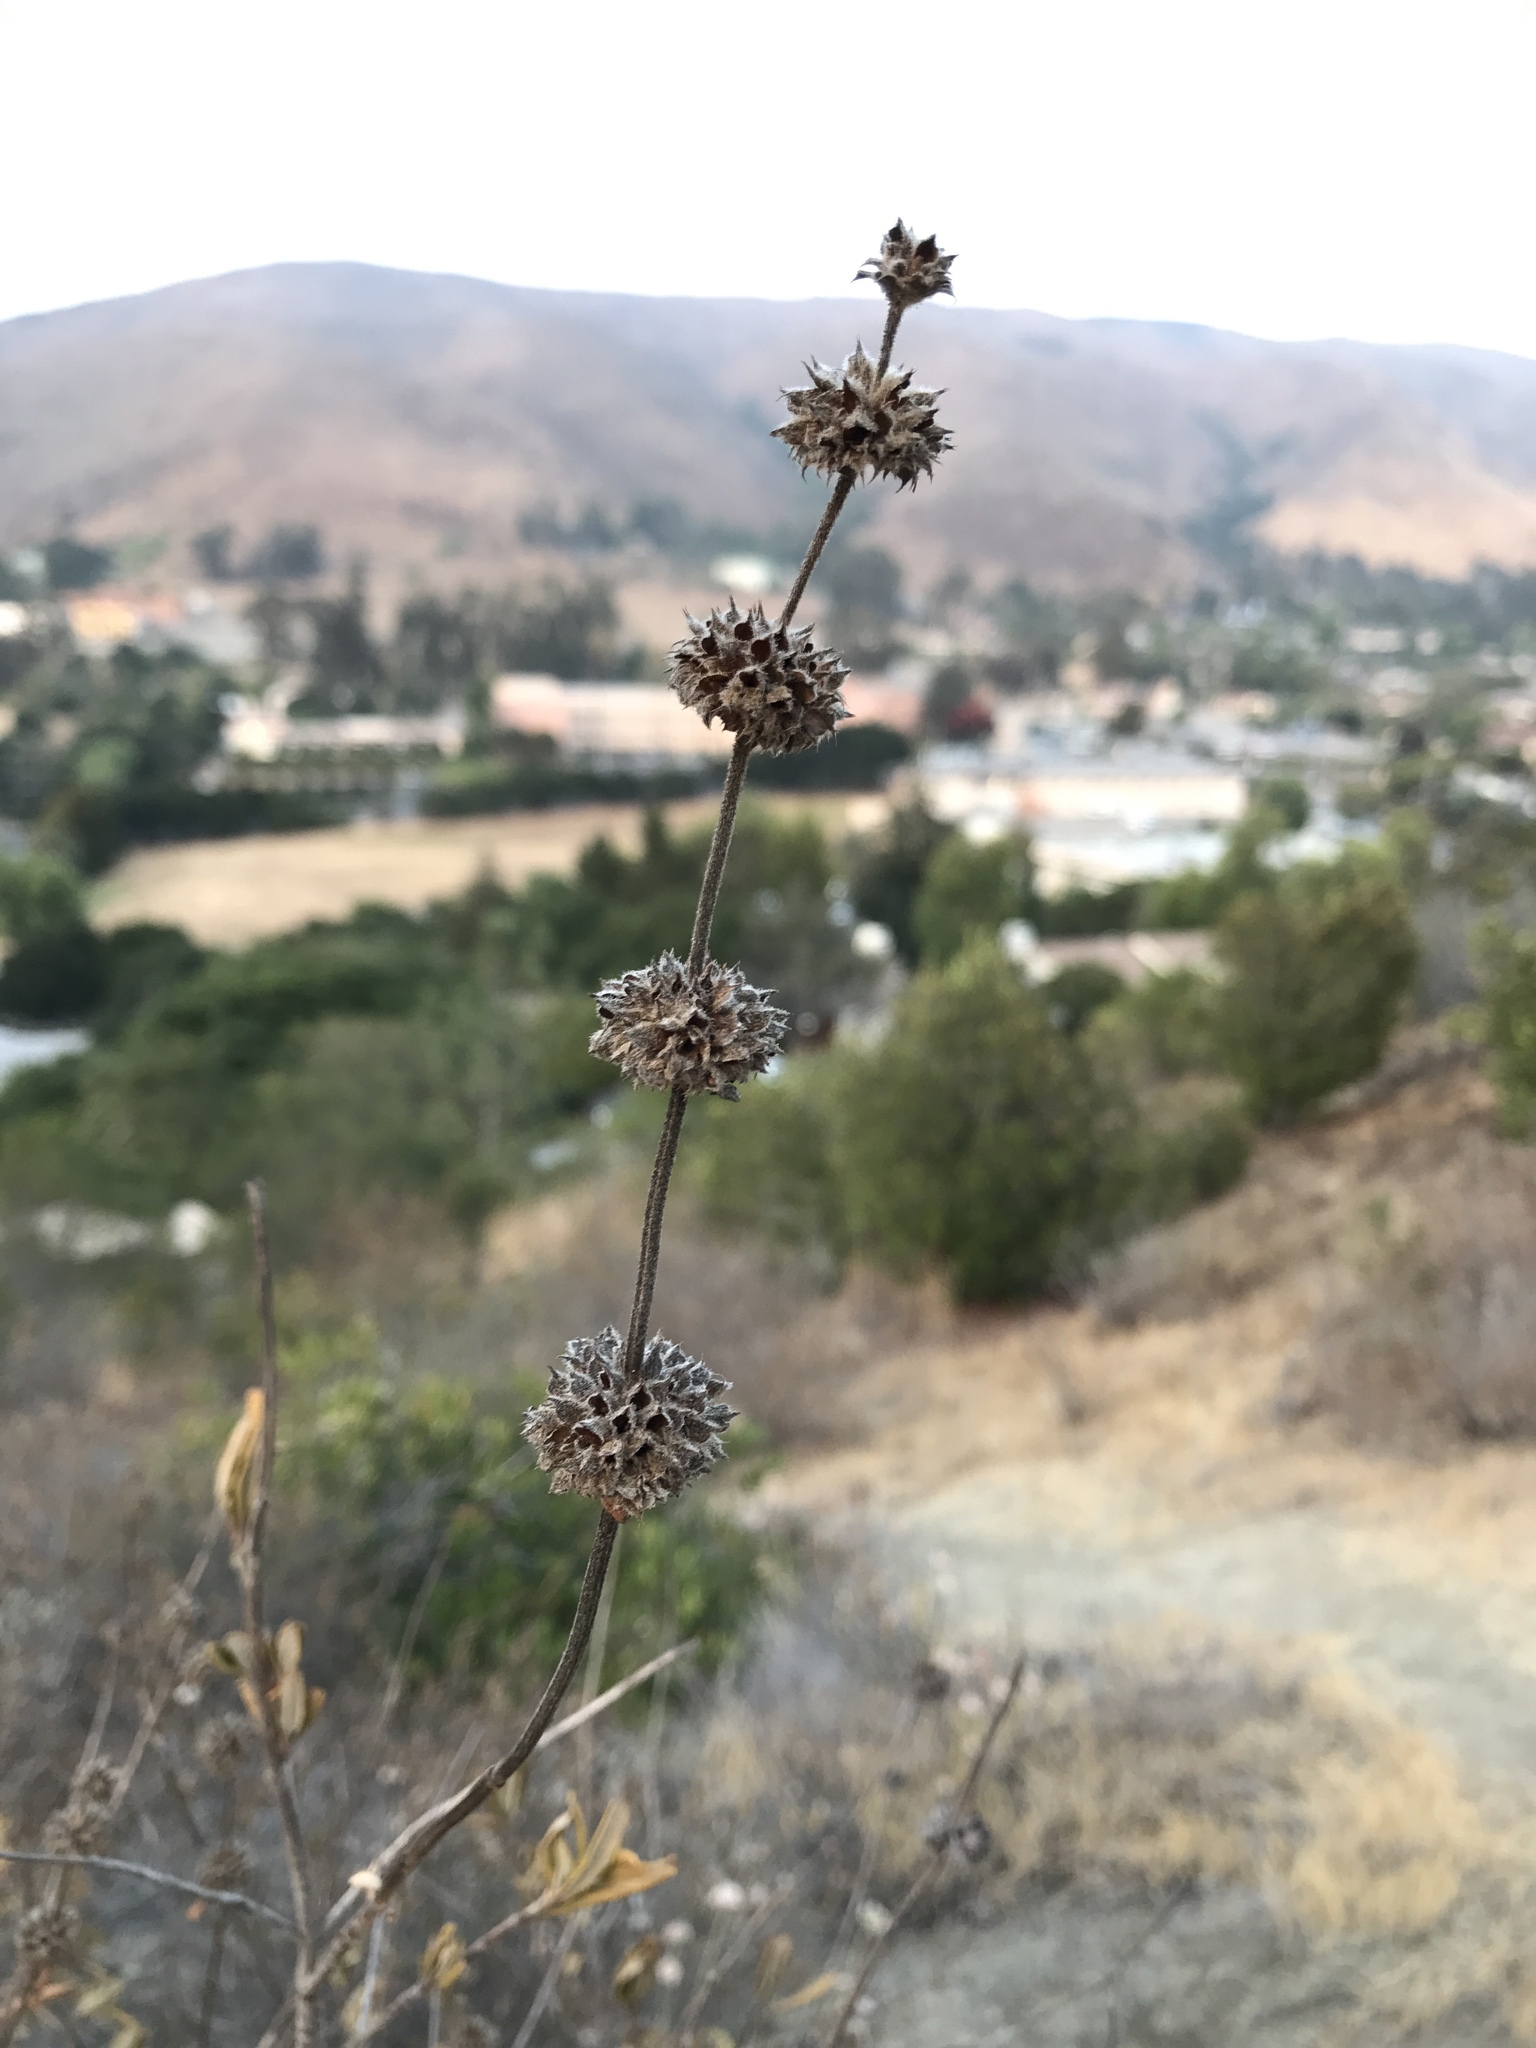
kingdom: Plantae
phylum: Tracheophyta
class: Magnoliopsida
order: Lamiales
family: Lamiaceae
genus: Salvia
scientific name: Salvia mellifera
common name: Black sage
